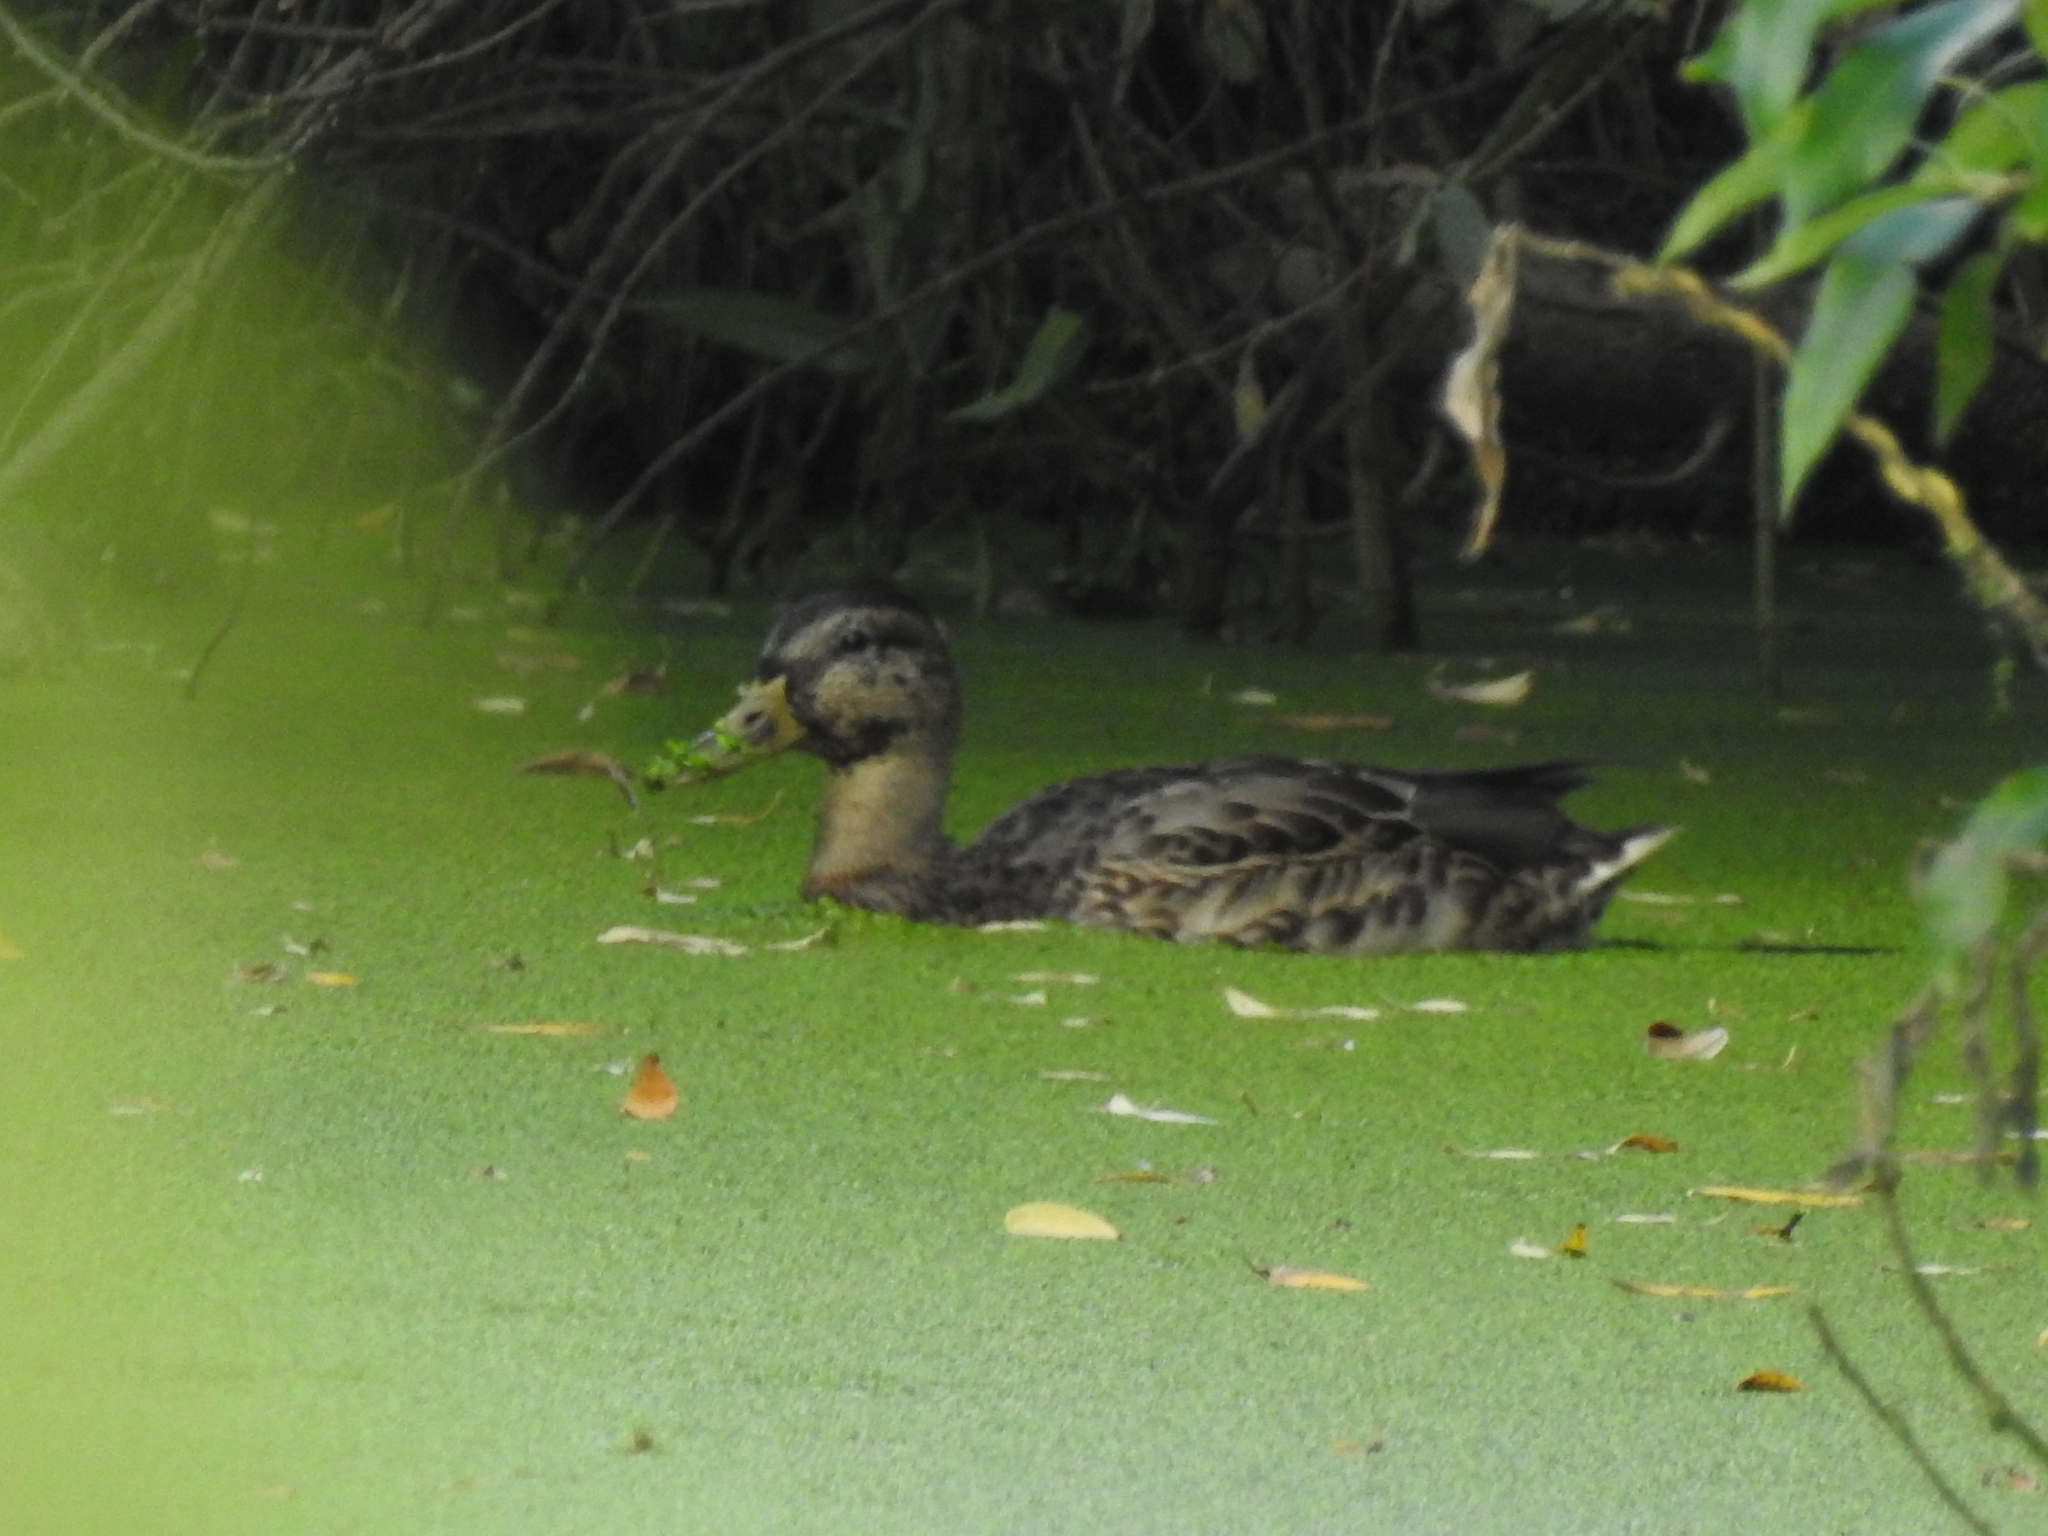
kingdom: Animalia
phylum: Chordata
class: Aves
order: Anseriformes
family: Anatidae
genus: Anas
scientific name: Anas platyrhynchos
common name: Mallard
